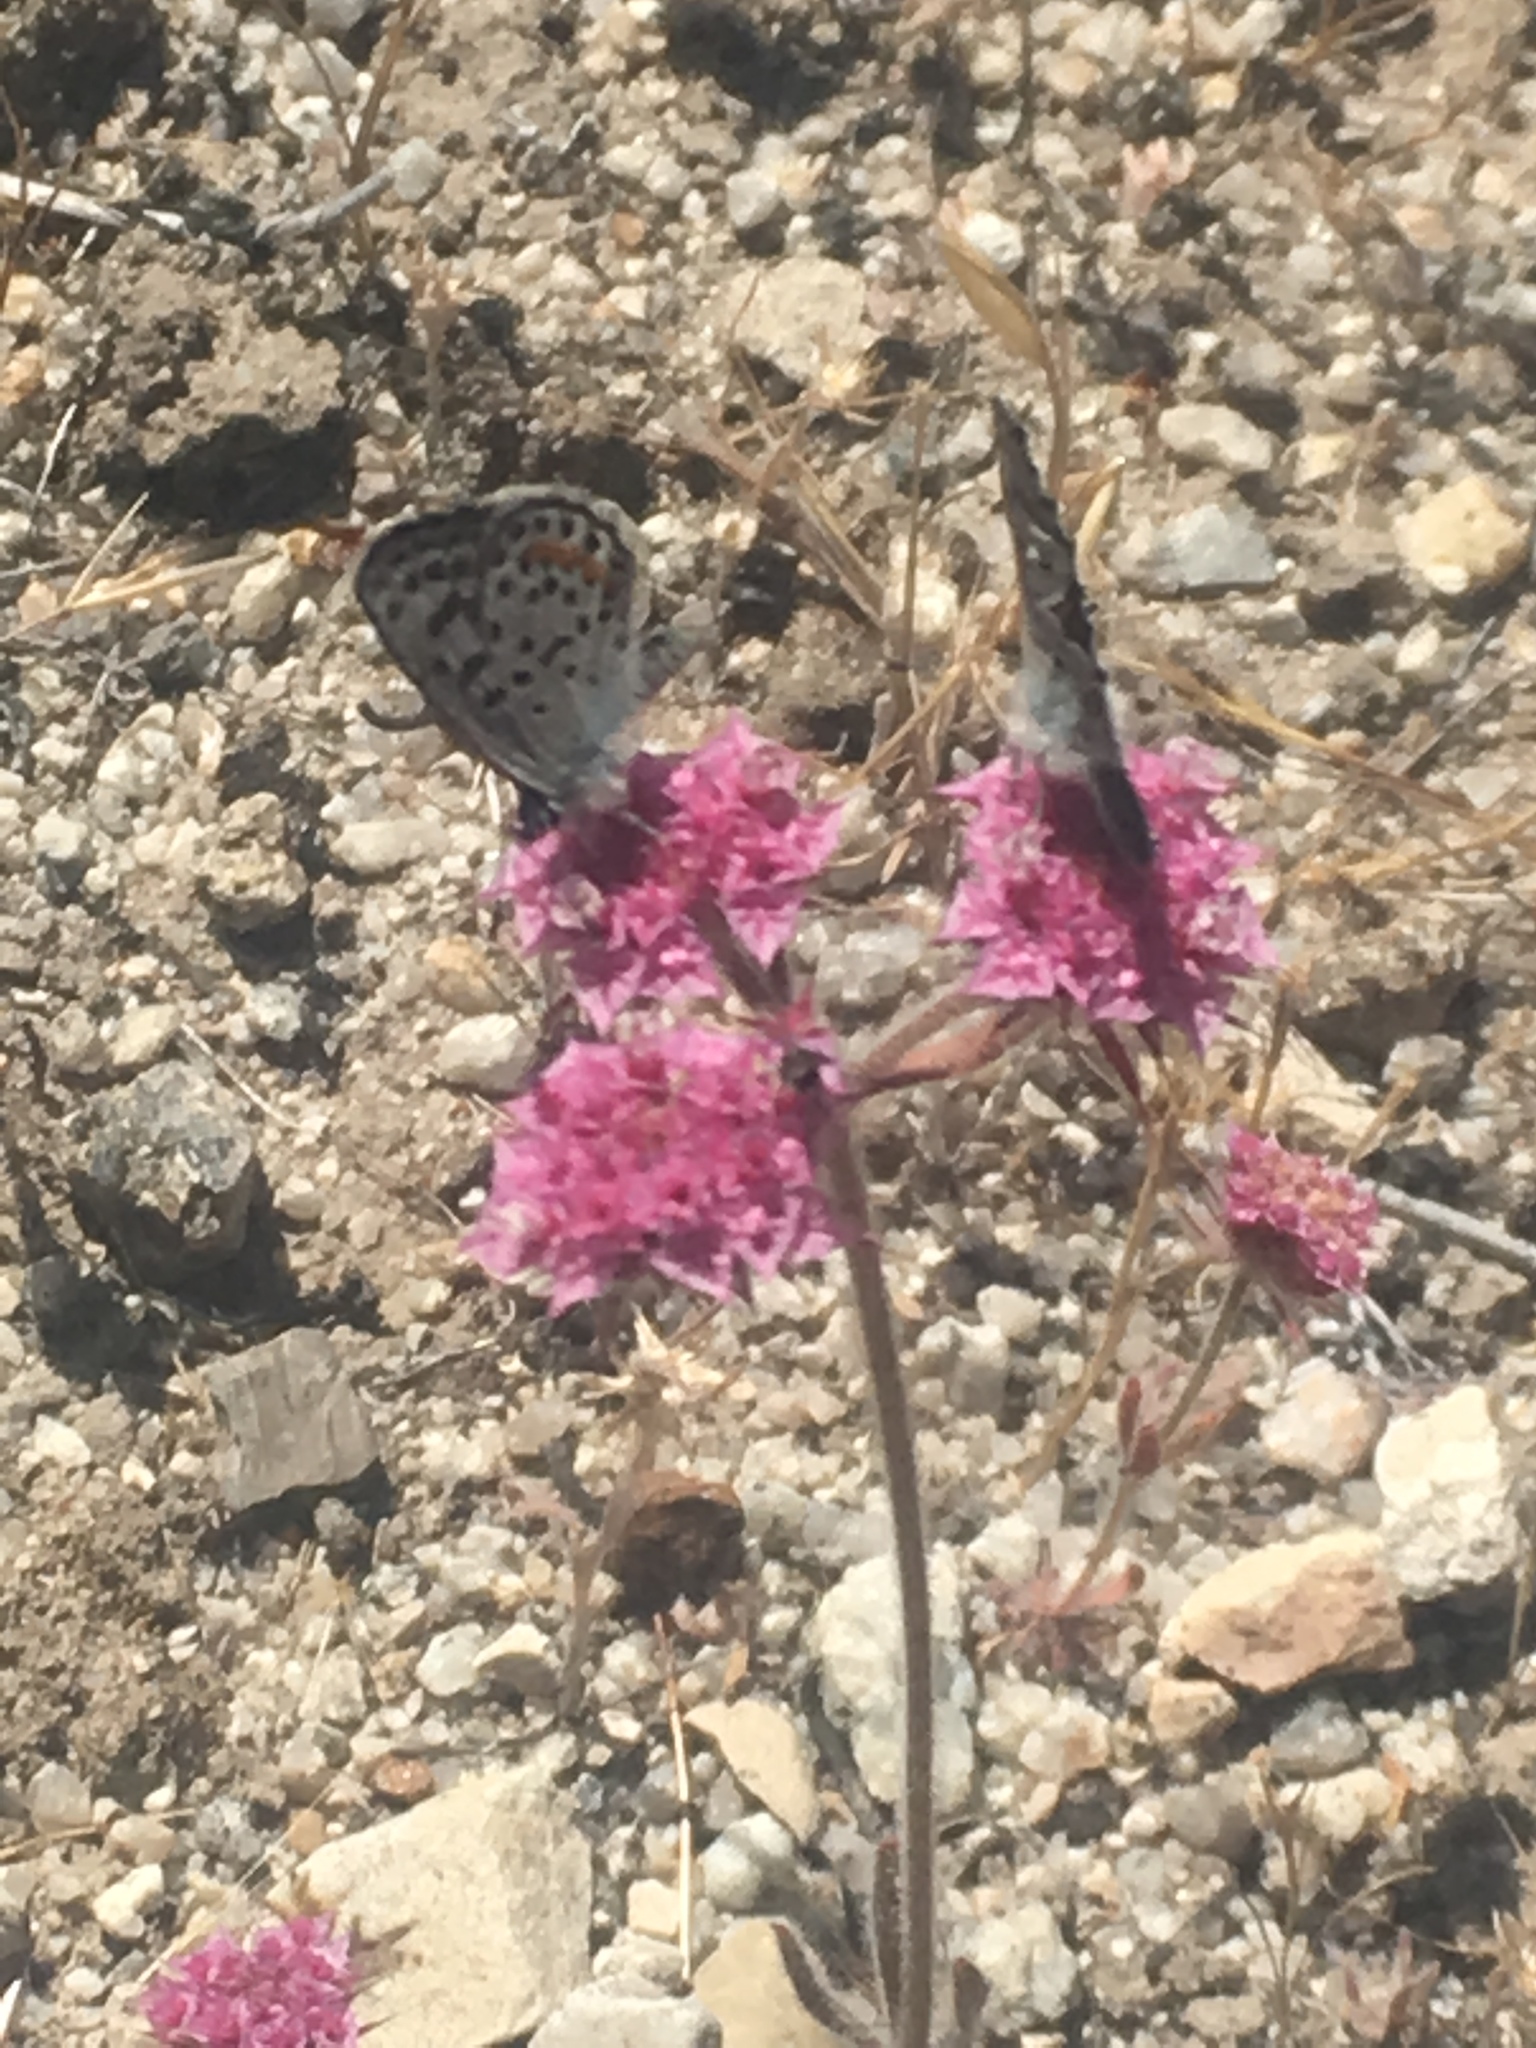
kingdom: Plantae
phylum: Tracheophyta
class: Magnoliopsida
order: Caryophyllales
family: Polygonaceae
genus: Chorizanthe
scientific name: Chorizanthe douglasii
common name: Douglas's spineflower
